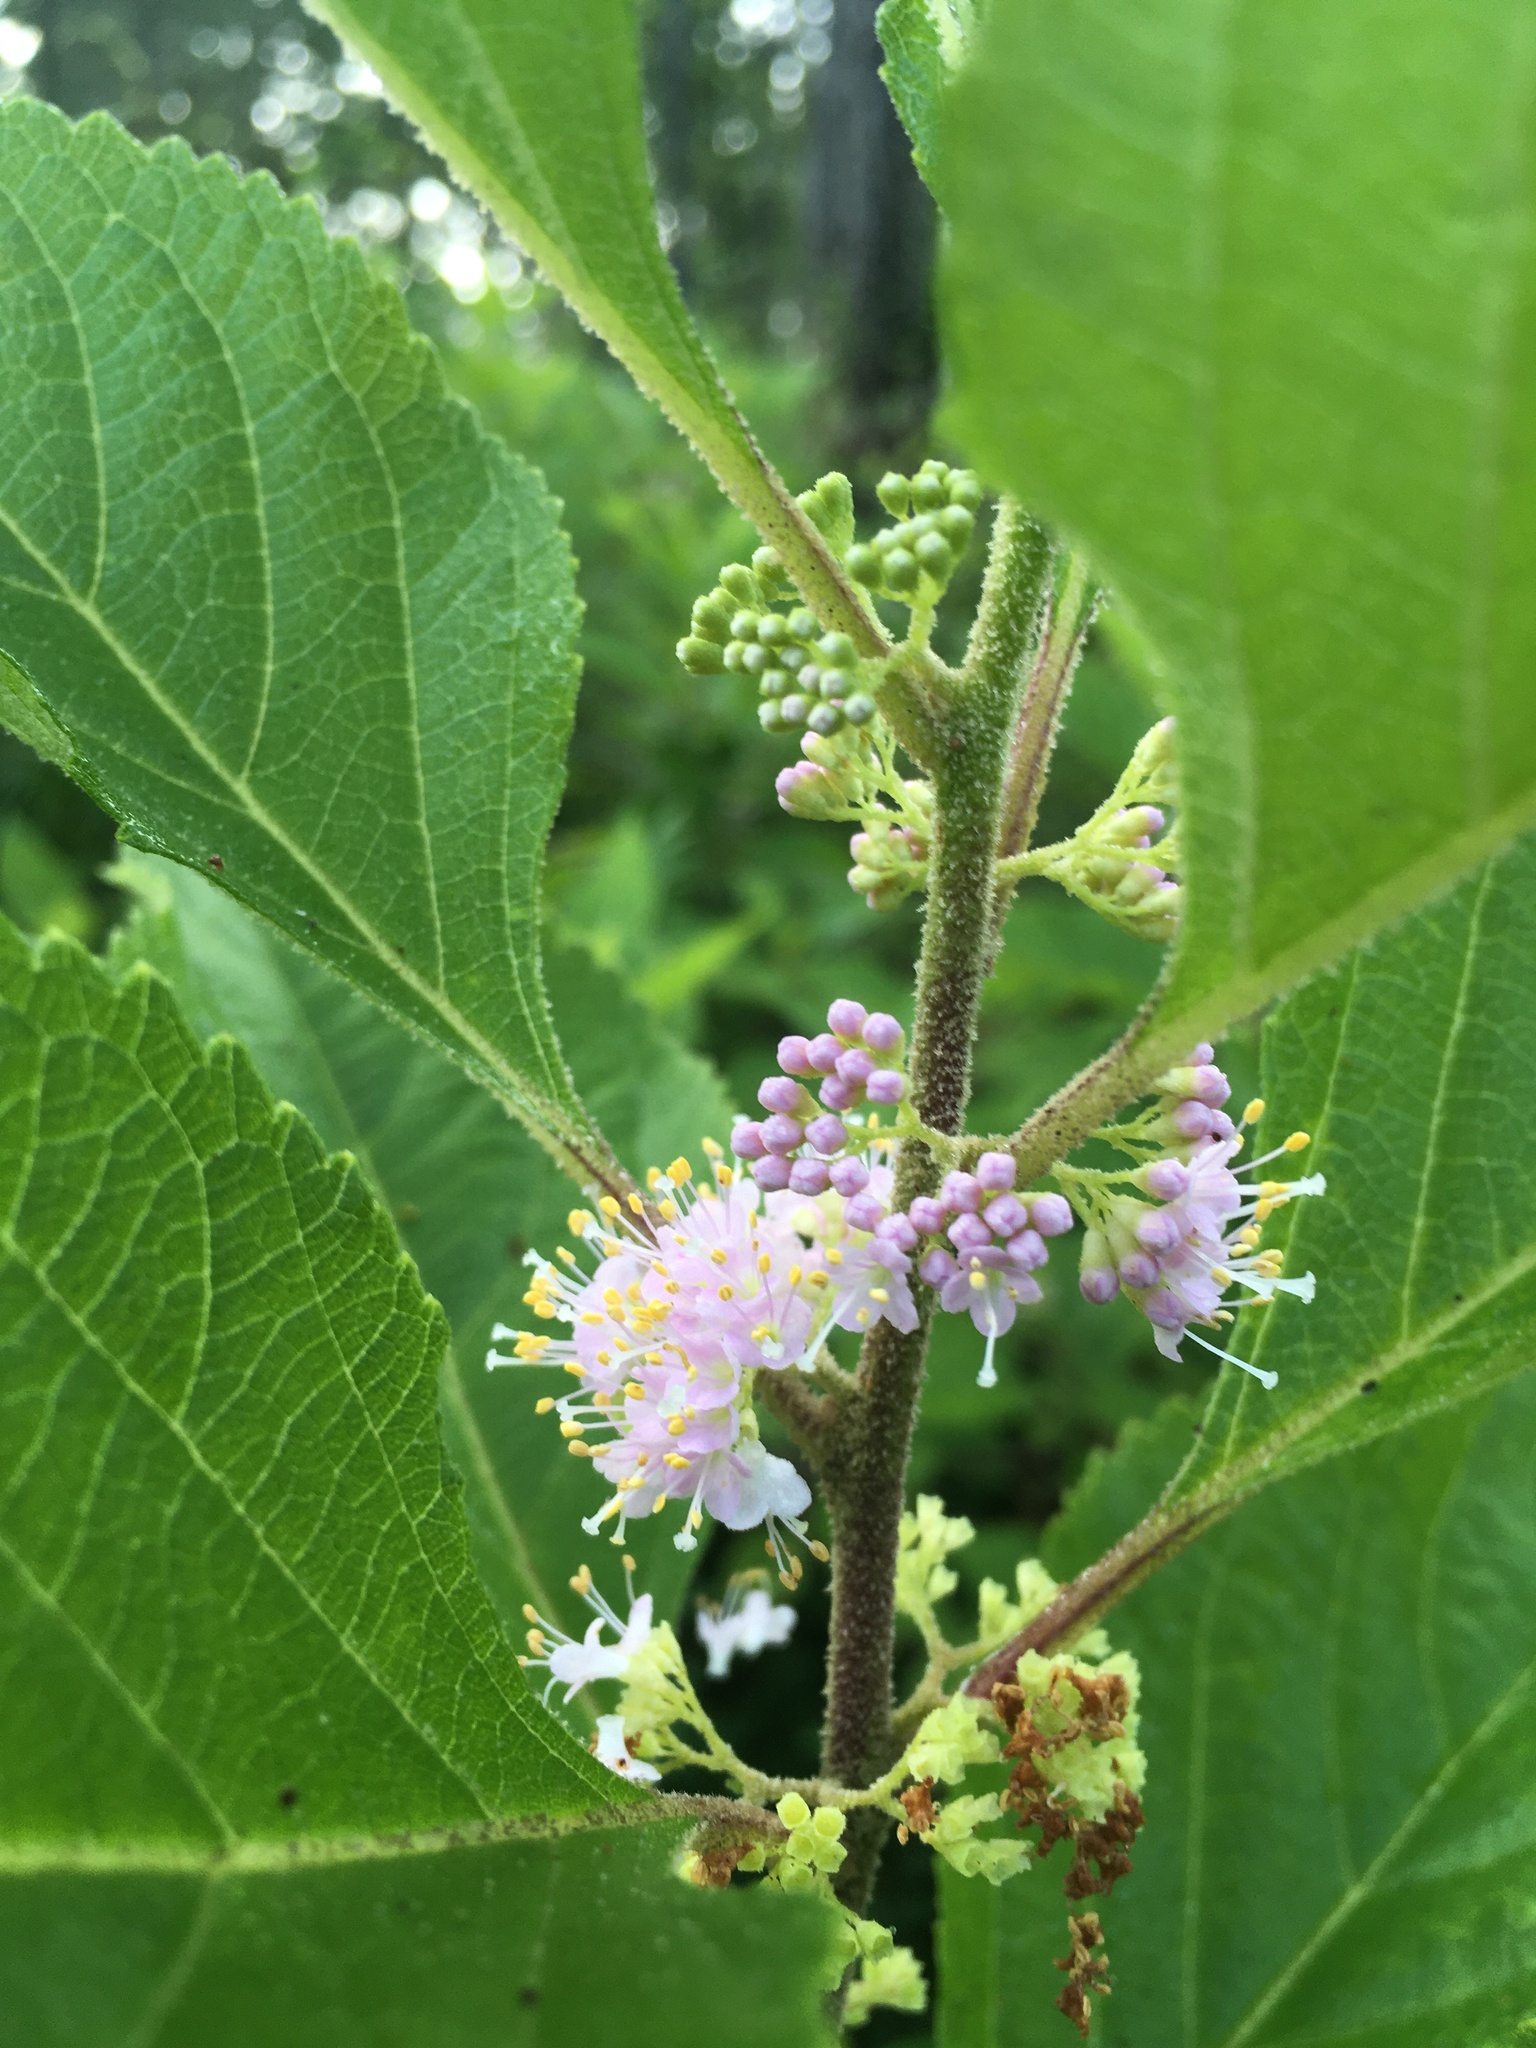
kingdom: Plantae
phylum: Tracheophyta
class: Magnoliopsida
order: Lamiales
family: Lamiaceae
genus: Callicarpa
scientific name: Callicarpa americana
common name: American beautyberry
